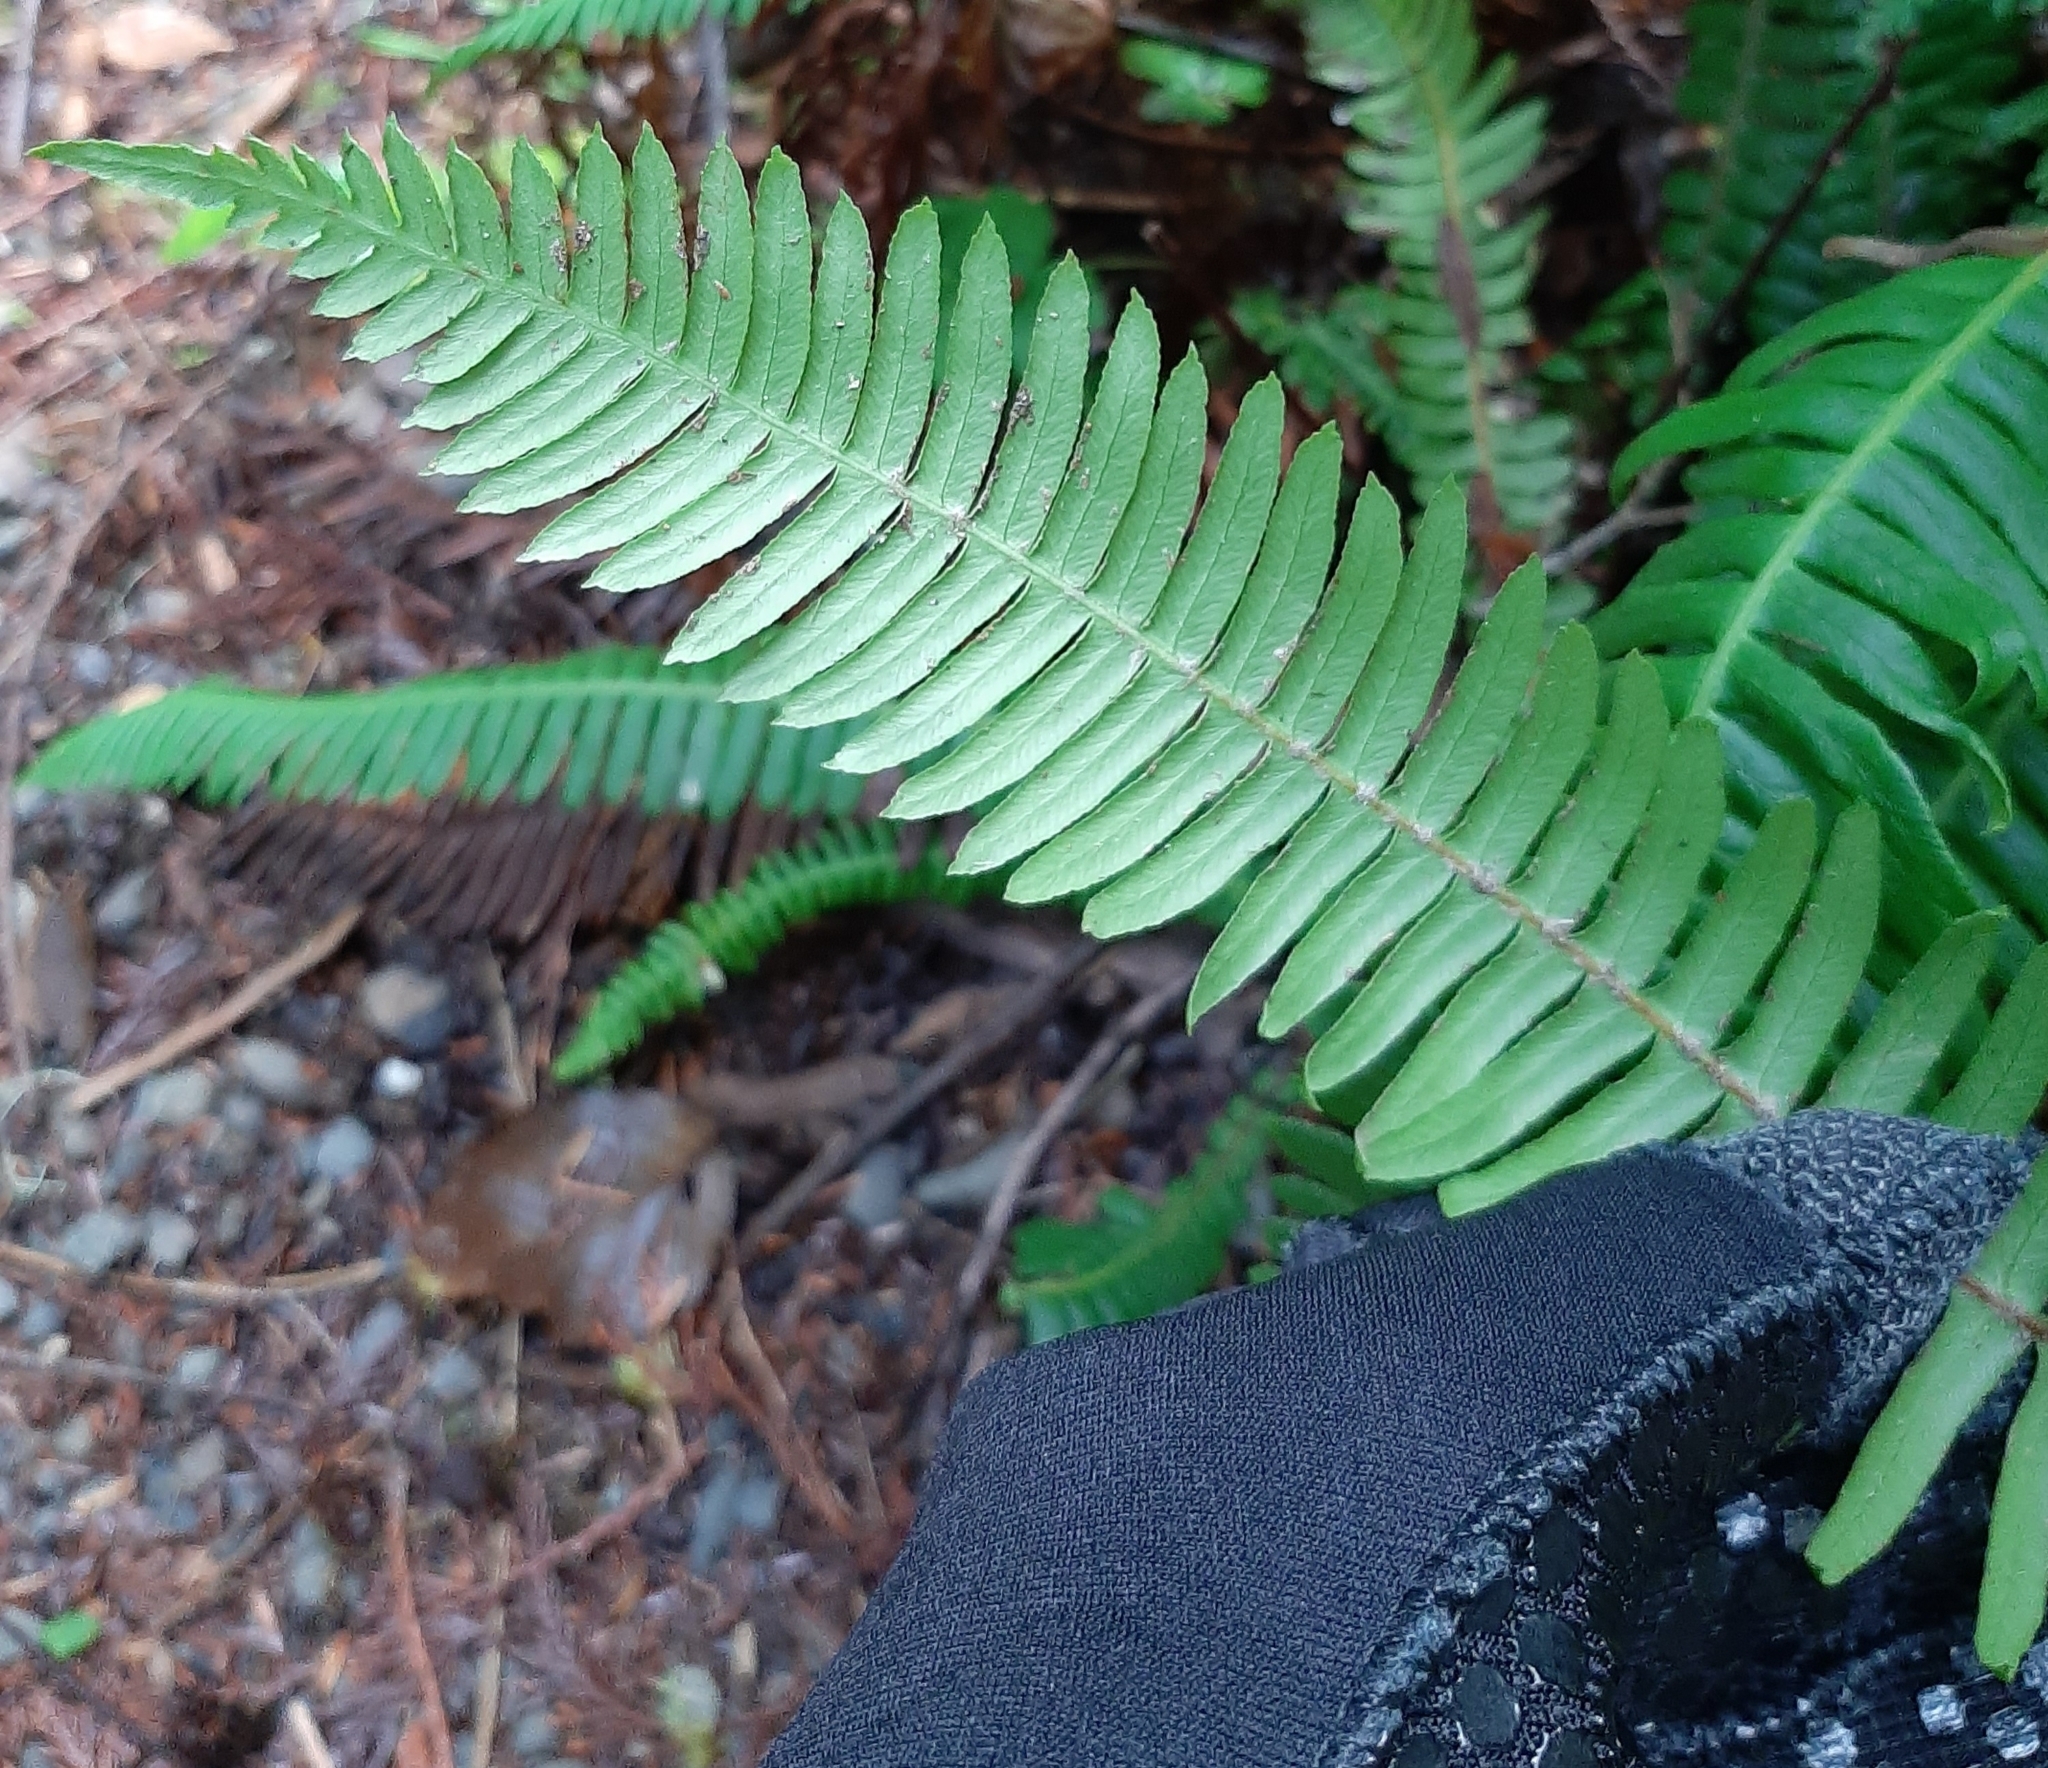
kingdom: Plantae
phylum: Tracheophyta
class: Polypodiopsida
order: Polypodiales
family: Blechnaceae
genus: Struthiopteris
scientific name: Struthiopteris spicant
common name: Deer fern
